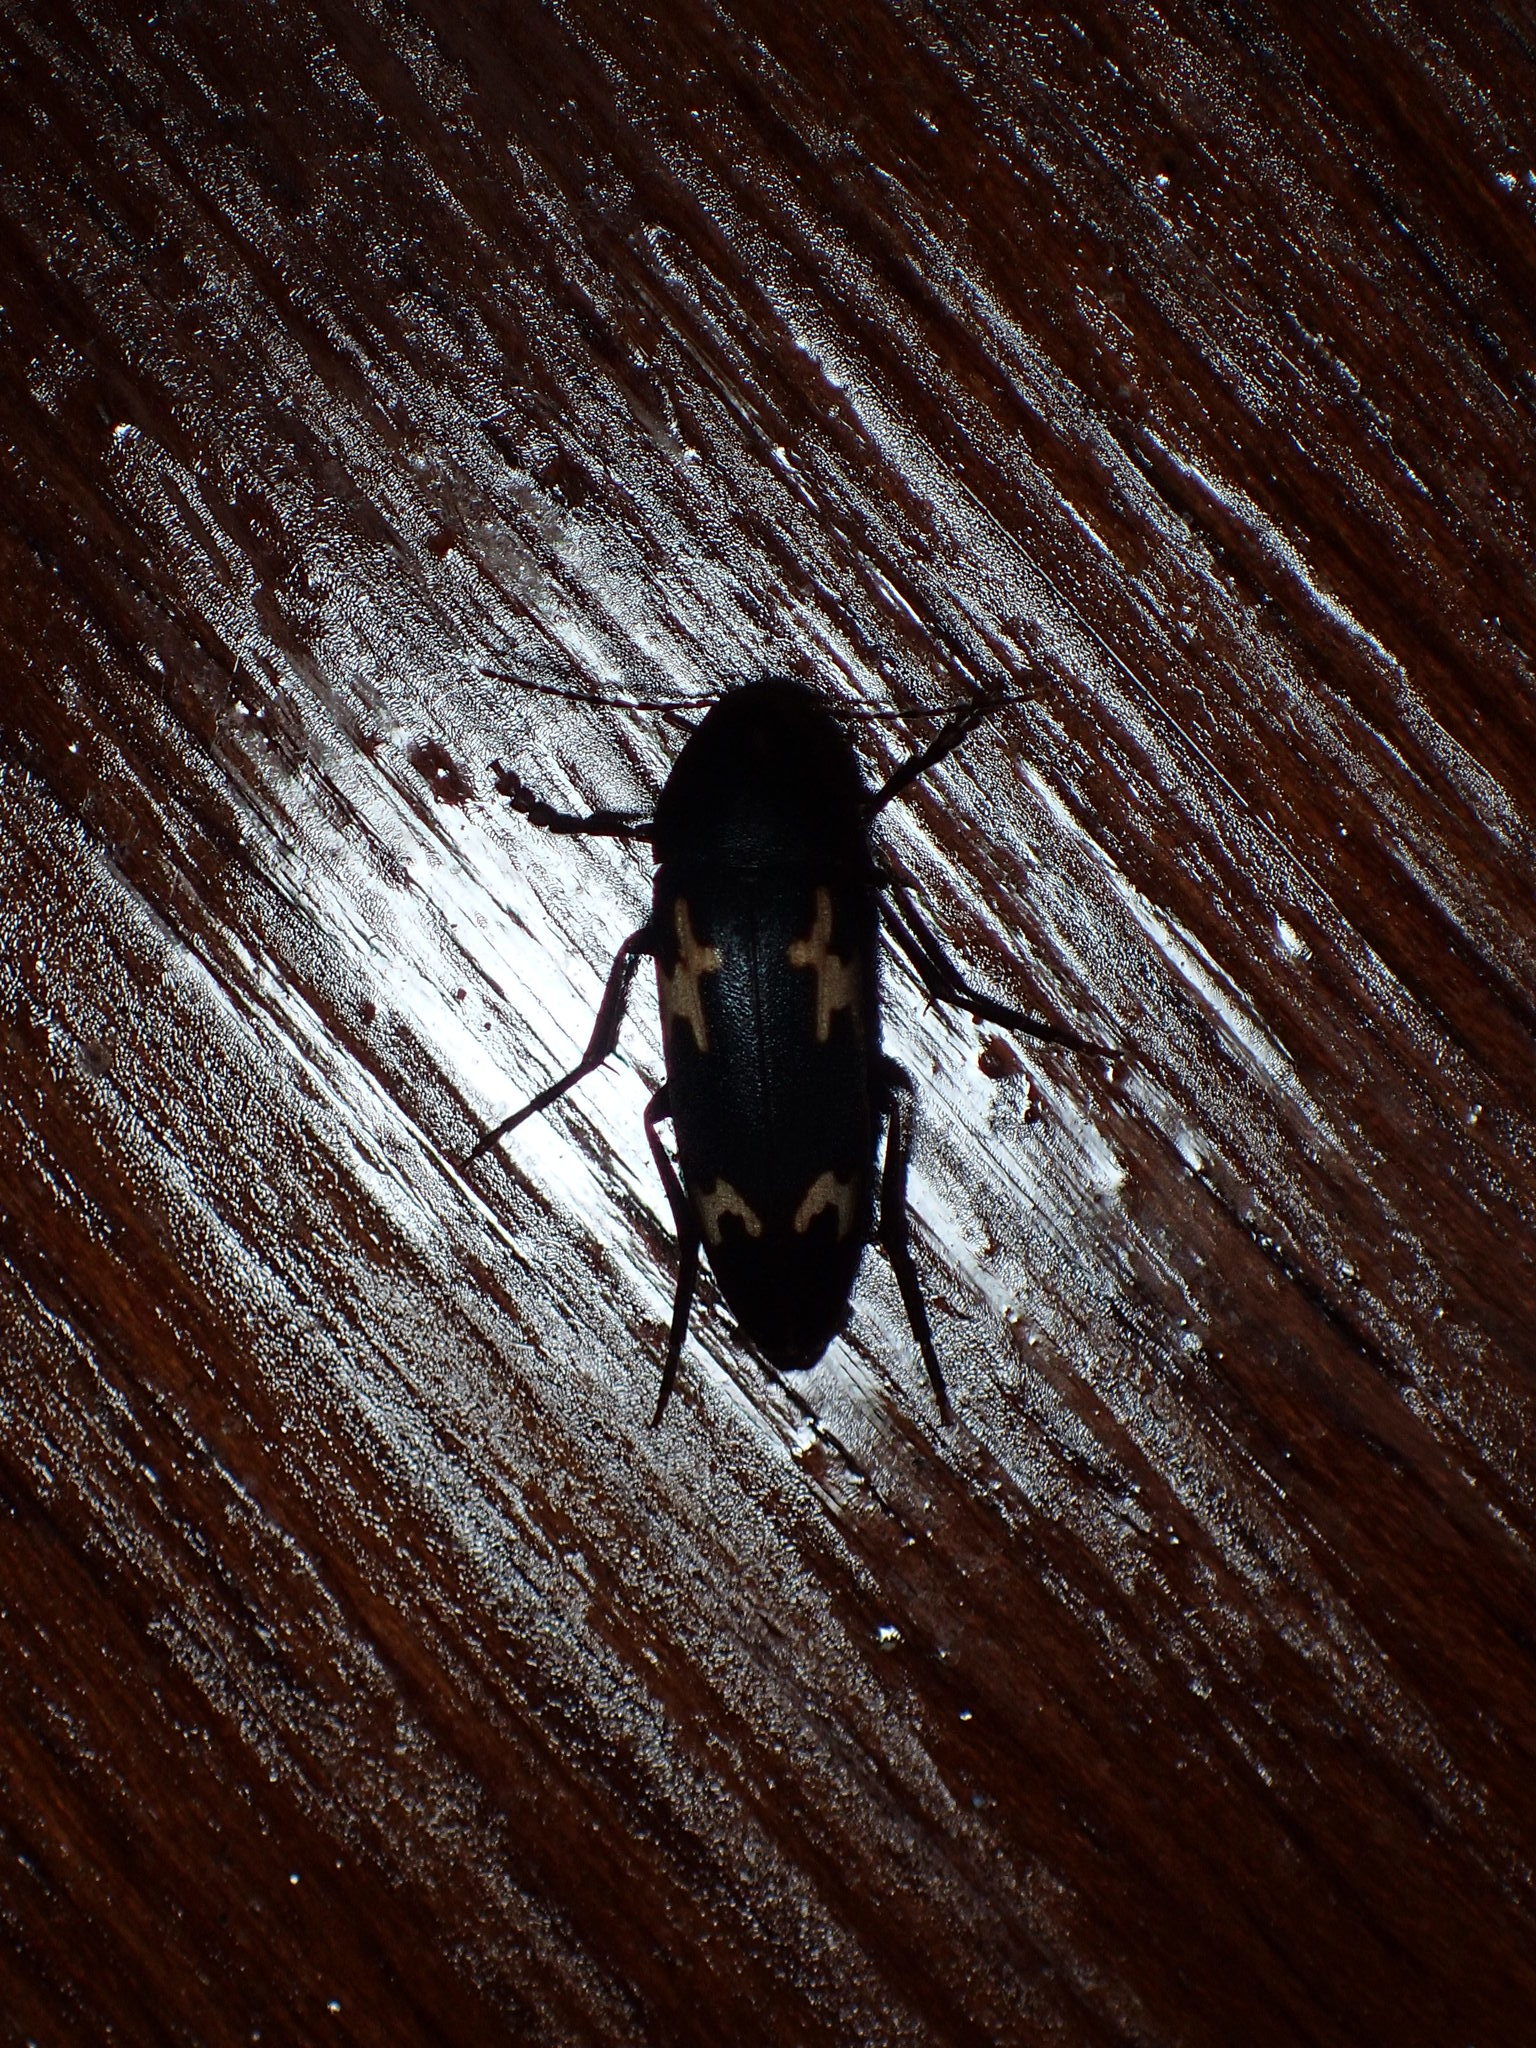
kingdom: Animalia
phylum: Arthropoda
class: Insecta
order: Coleoptera
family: Melandryidae
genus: Dircaea
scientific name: Dircaea liturata
